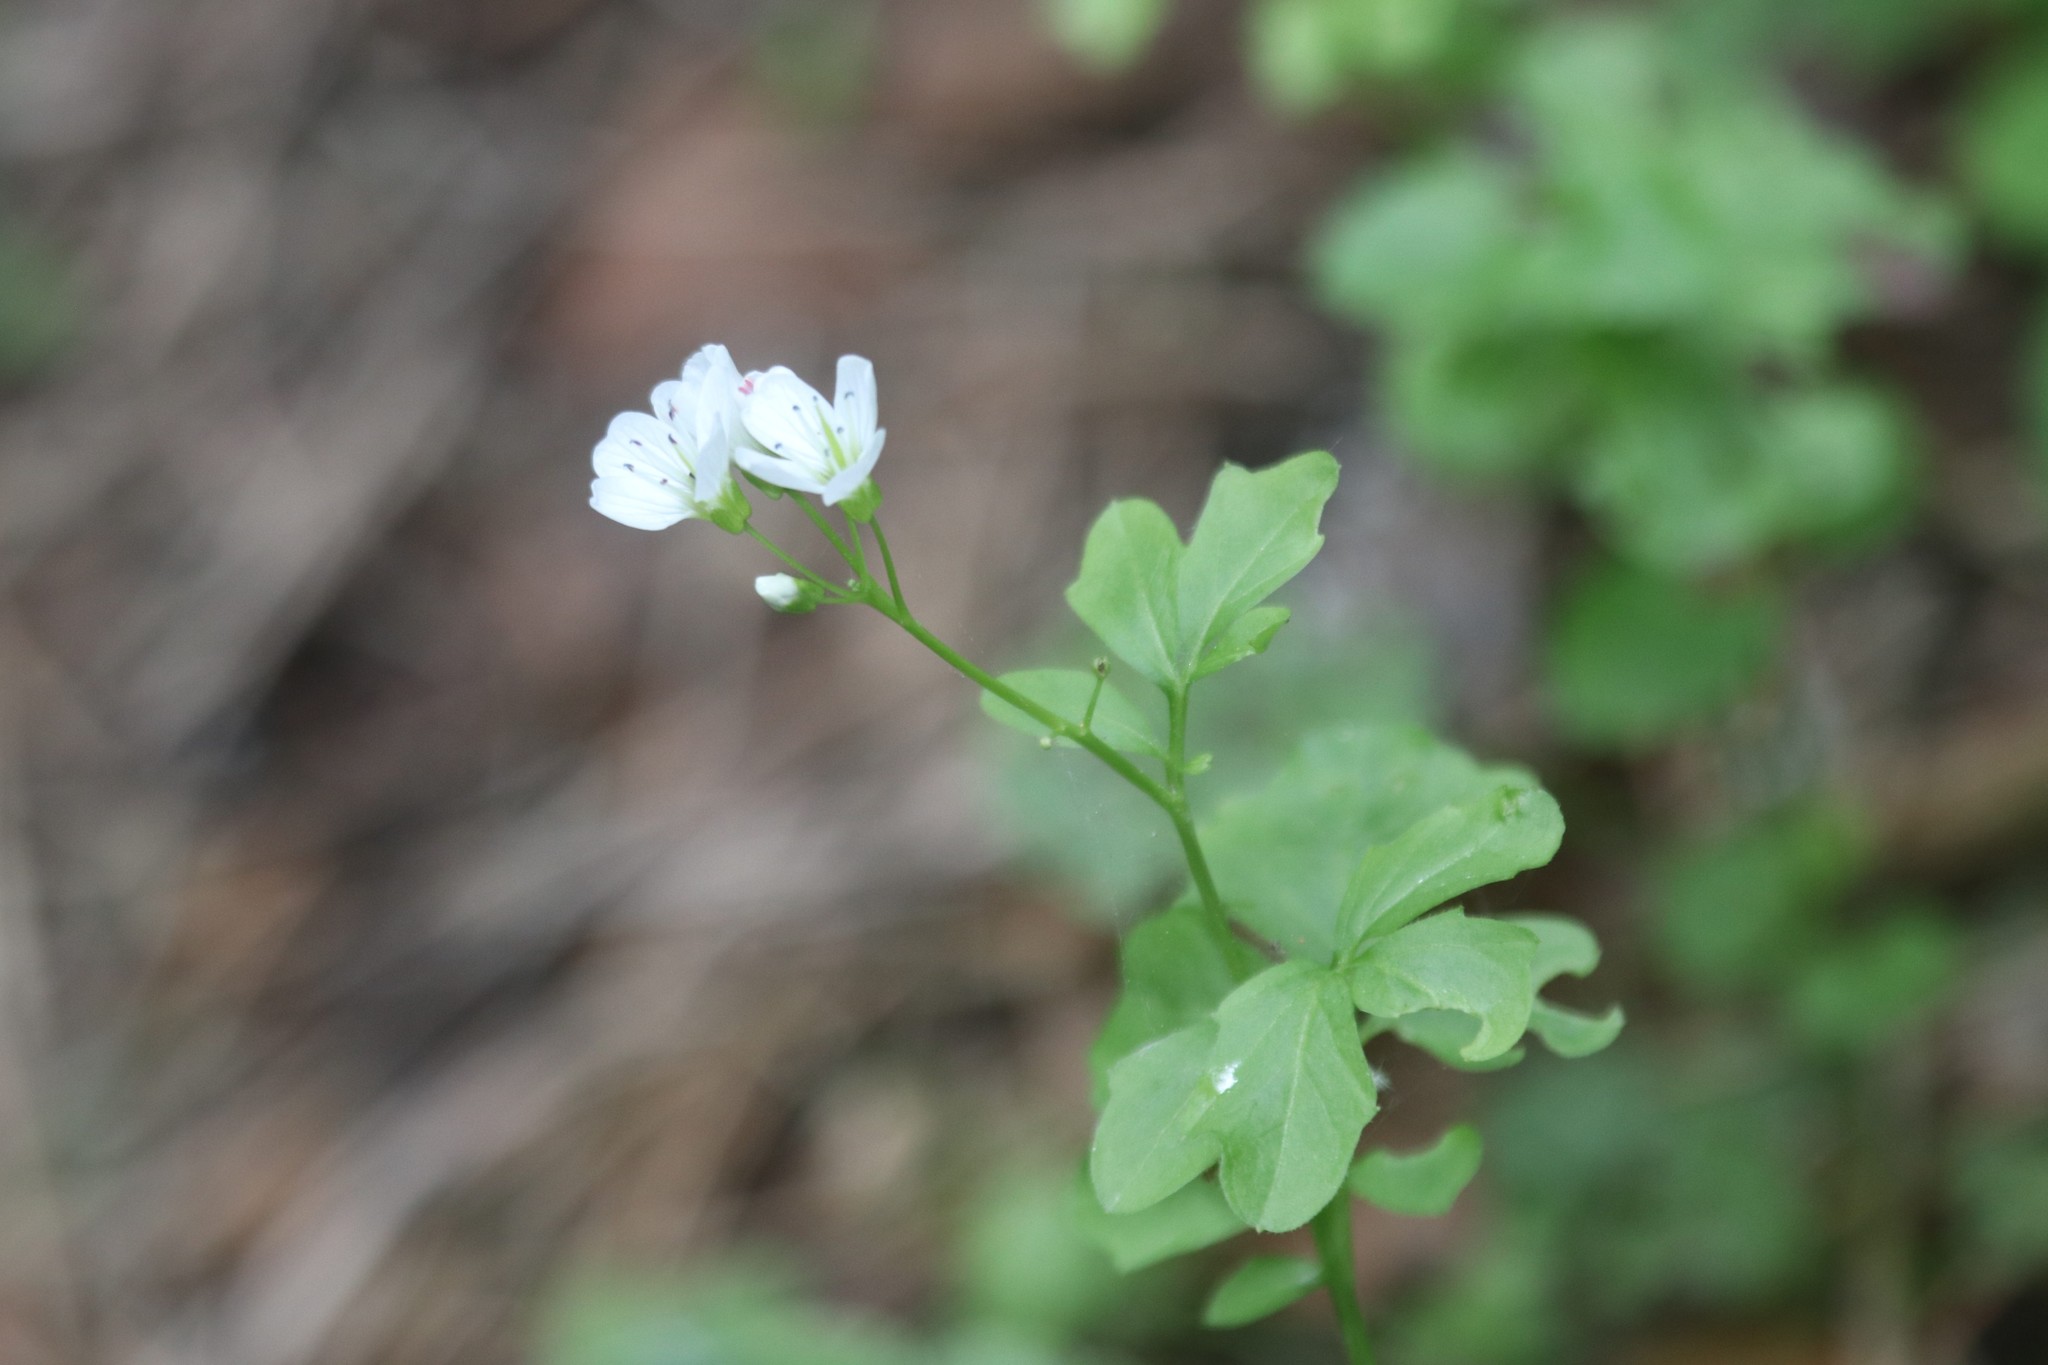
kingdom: Plantae
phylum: Tracheophyta
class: Magnoliopsida
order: Brassicales
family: Brassicaceae
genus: Cardamine
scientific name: Cardamine amara
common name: Large bitter-cress
